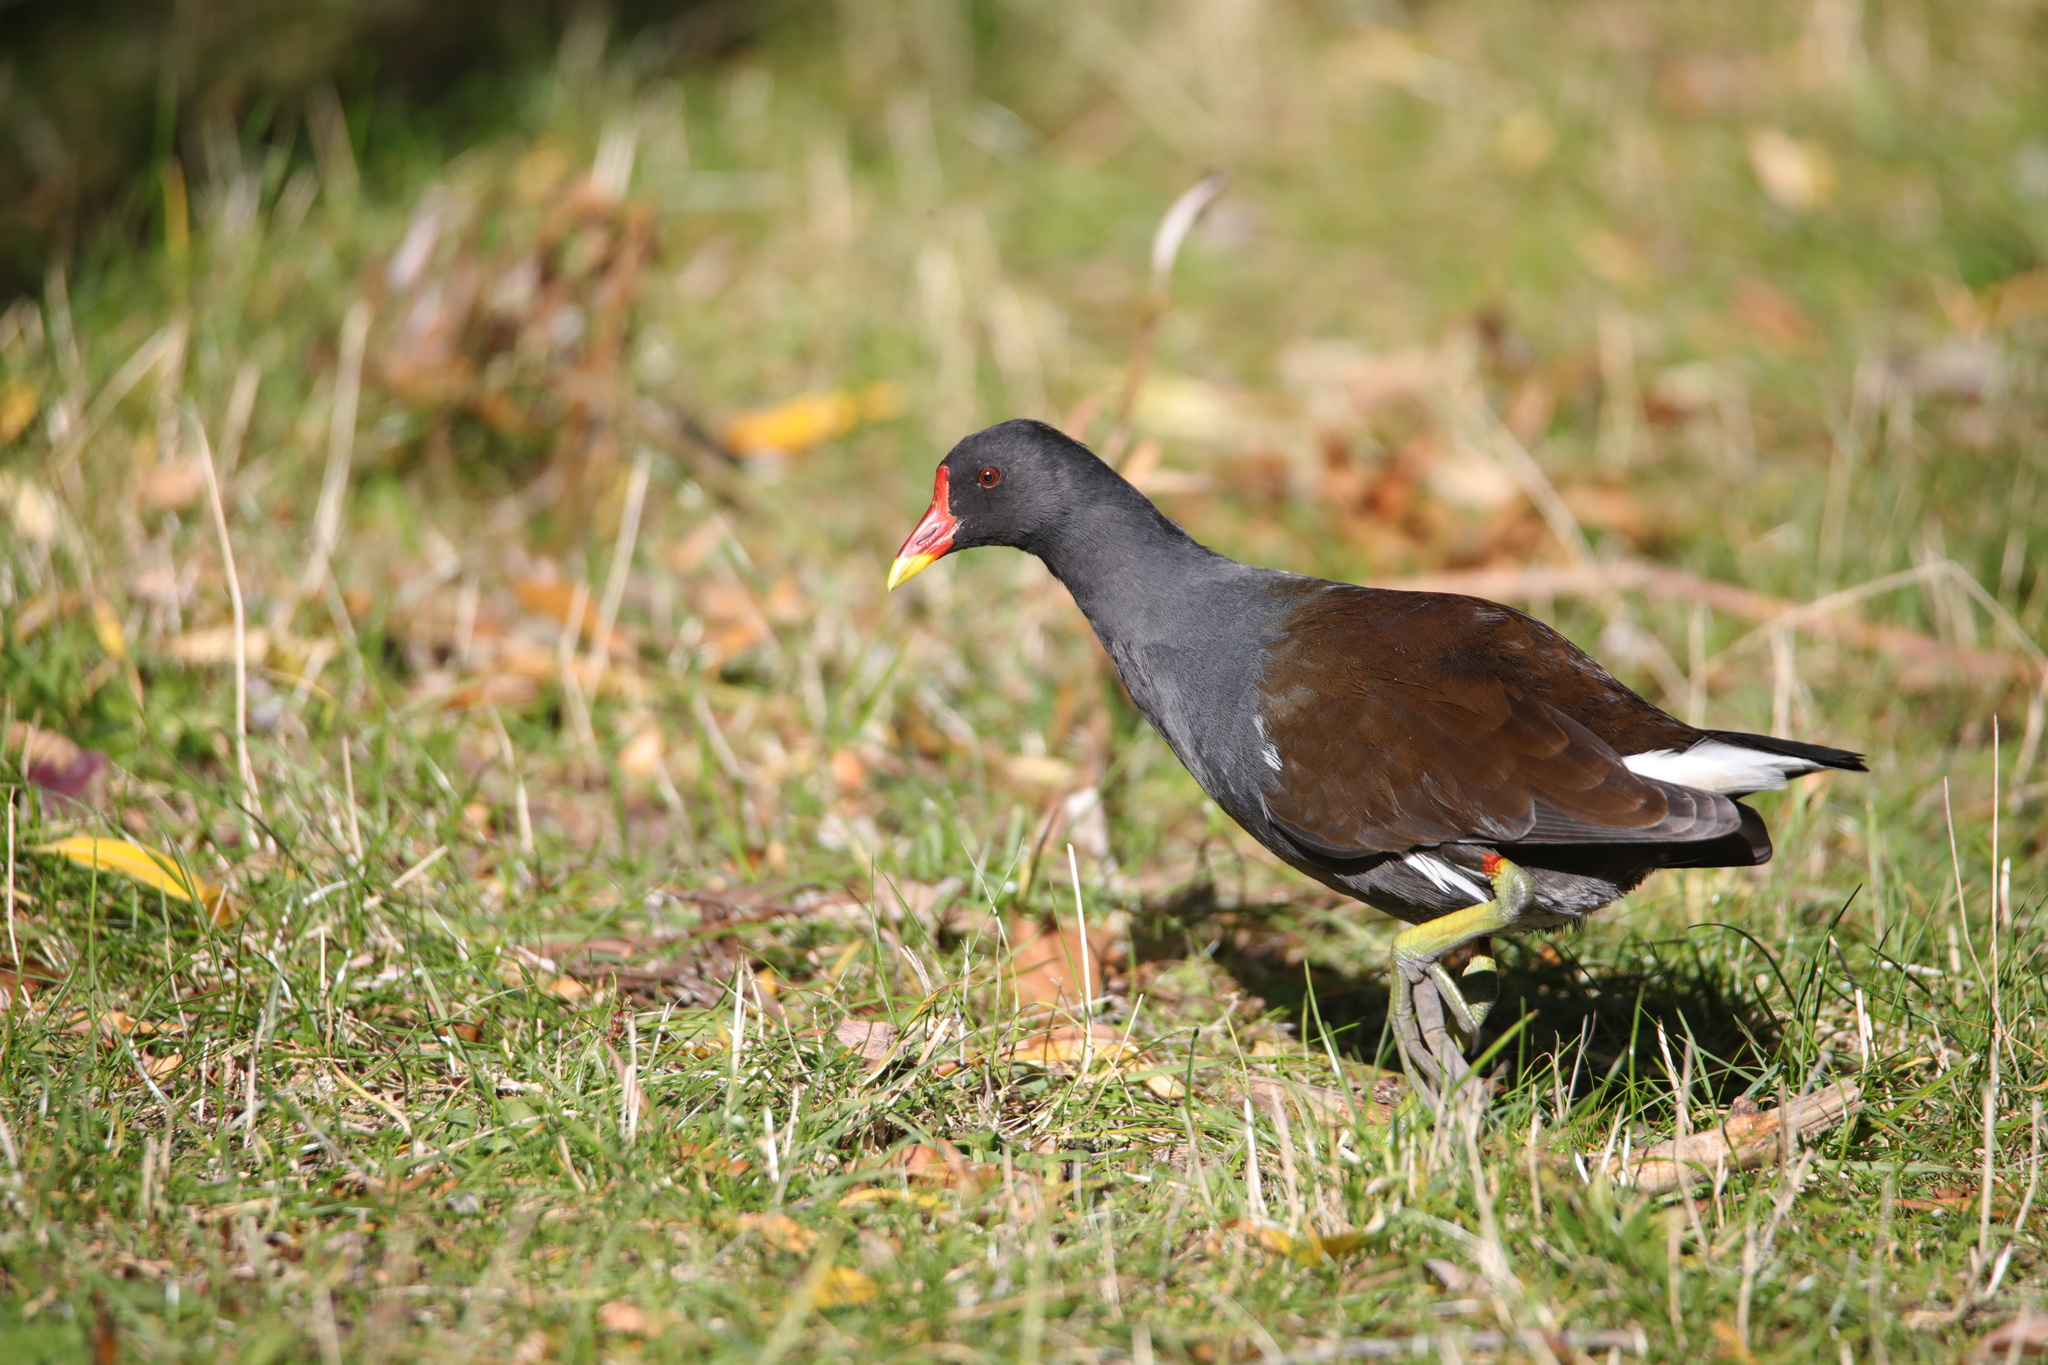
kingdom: Animalia
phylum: Chordata
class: Aves
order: Gruiformes
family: Rallidae
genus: Gallinula
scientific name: Gallinula chloropus
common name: Common moorhen
